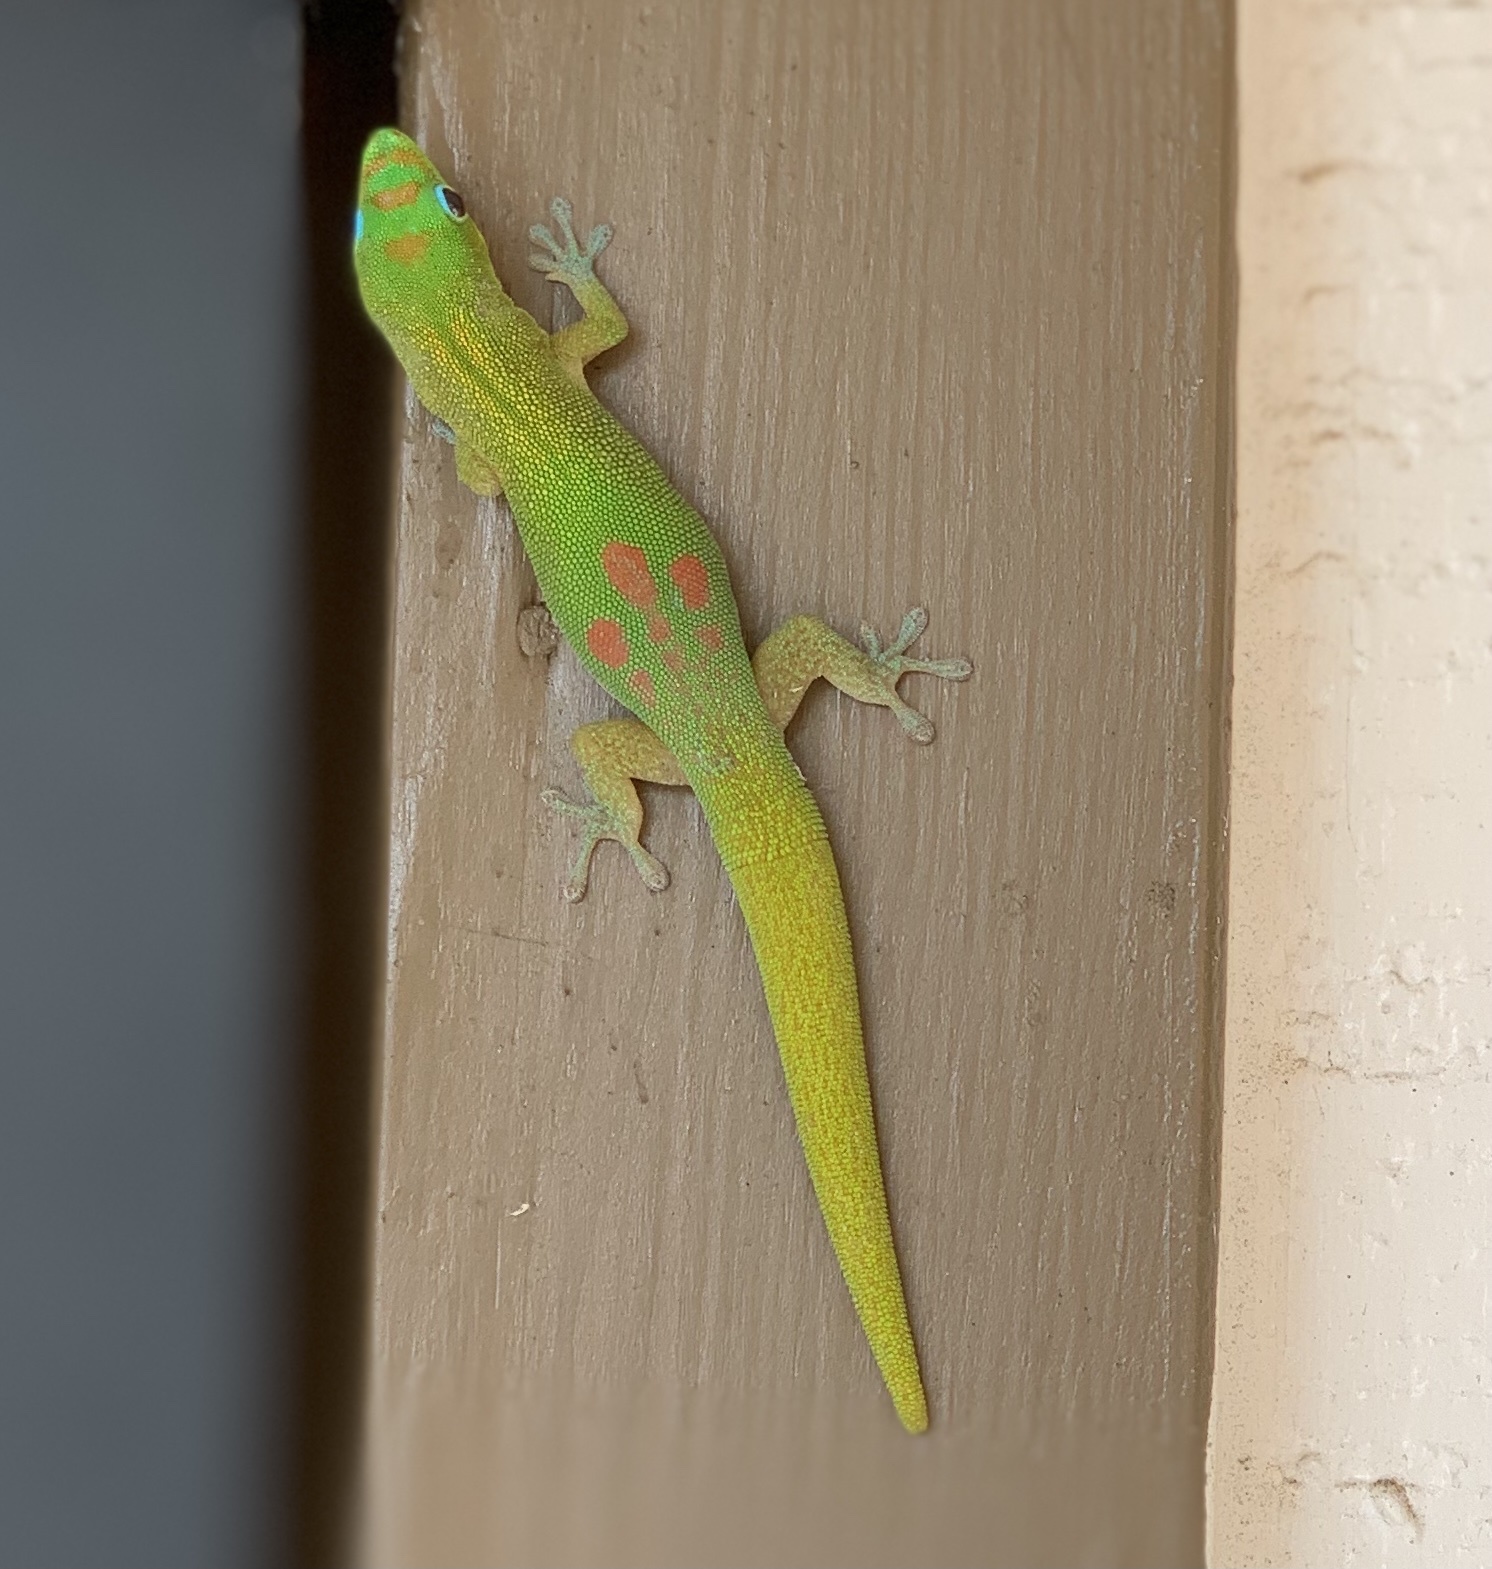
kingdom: Animalia
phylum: Chordata
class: Squamata
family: Gekkonidae
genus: Phelsuma
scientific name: Phelsuma laticauda
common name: Gold dust day gecko
